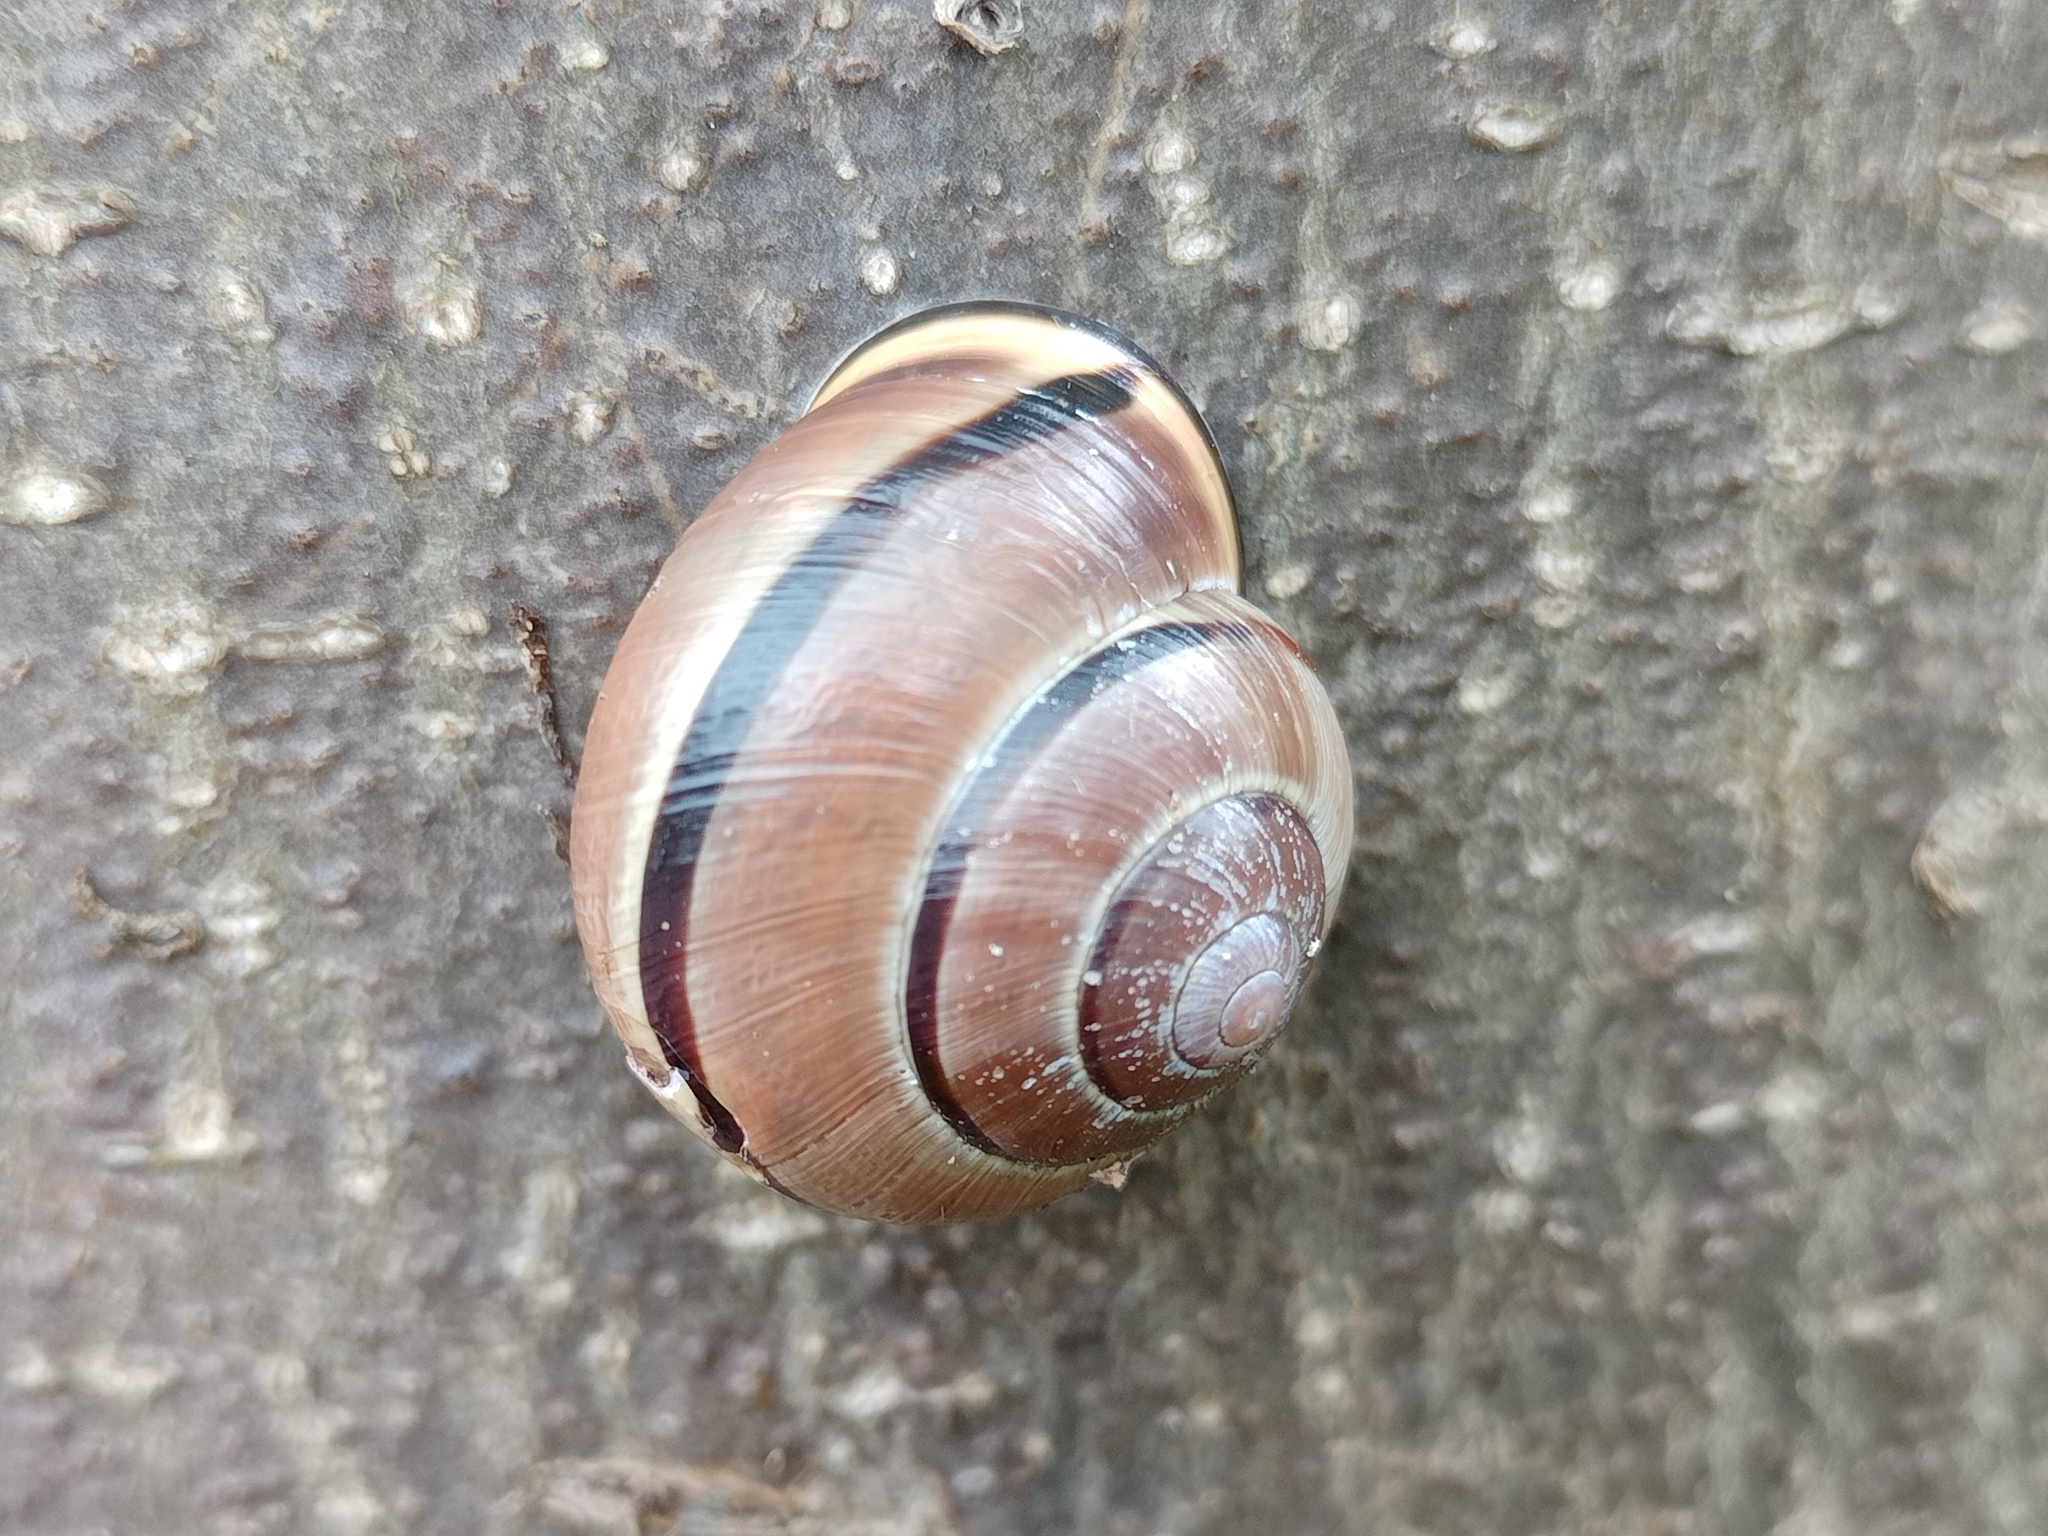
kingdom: Animalia
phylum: Mollusca
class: Gastropoda
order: Stylommatophora
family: Helicidae
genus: Cepaea
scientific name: Cepaea nemoralis
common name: Grovesnail
